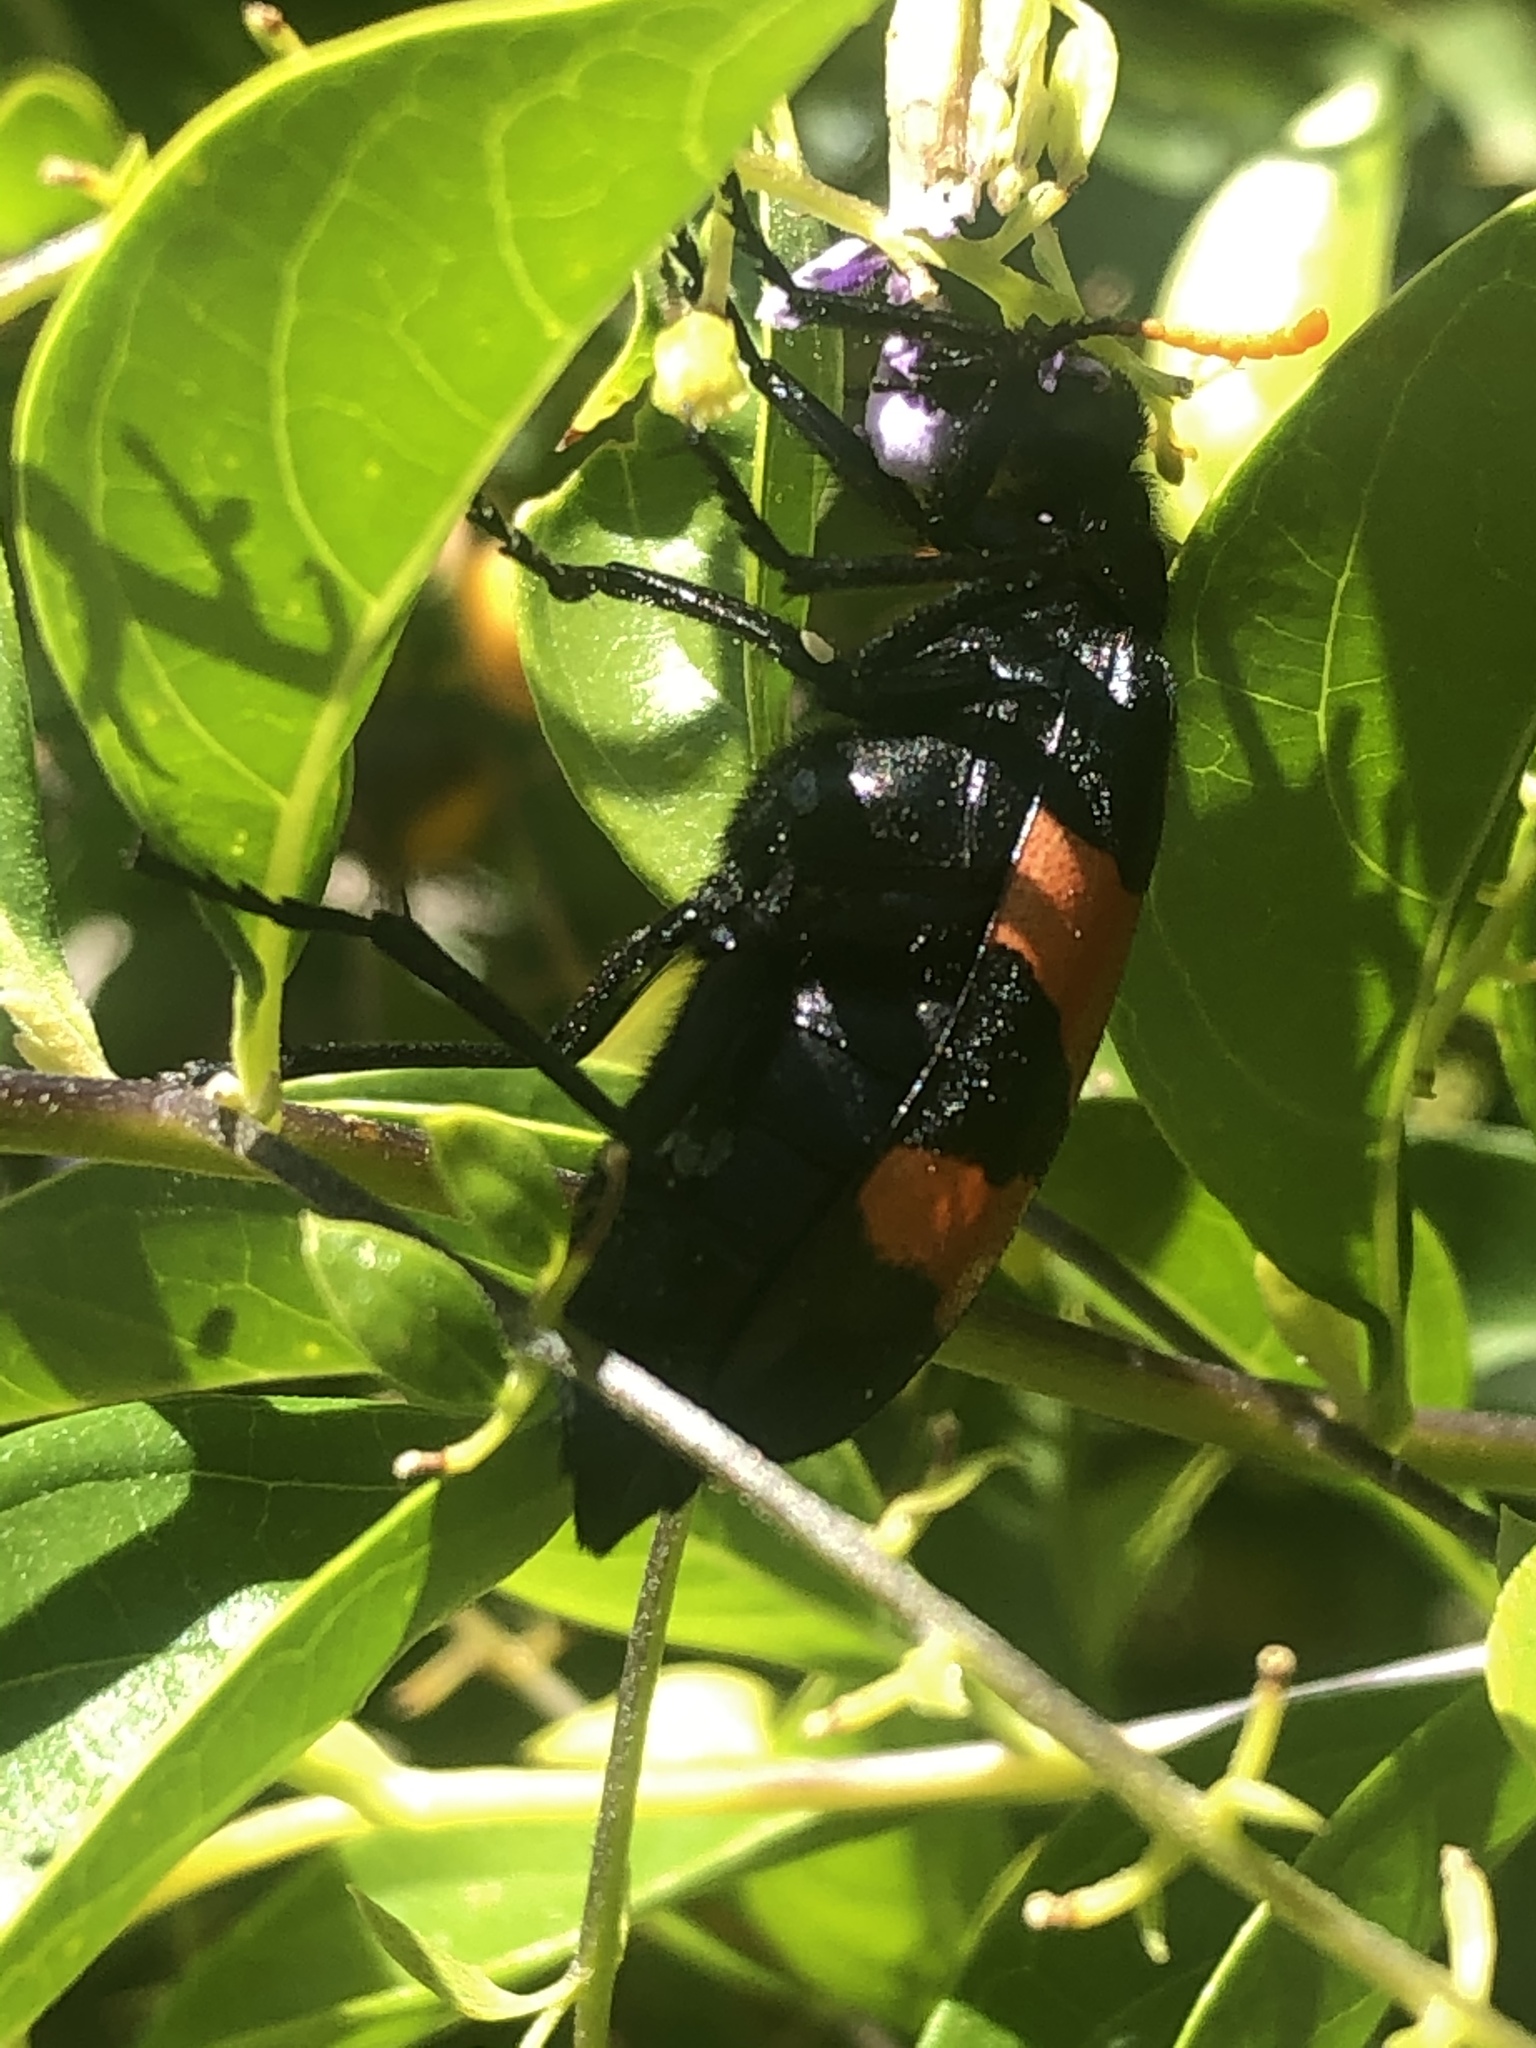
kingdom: Animalia
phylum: Arthropoda
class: Insecta
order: Coleoptera
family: Meloidae
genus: Hycleus
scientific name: Hycleus scapularis
